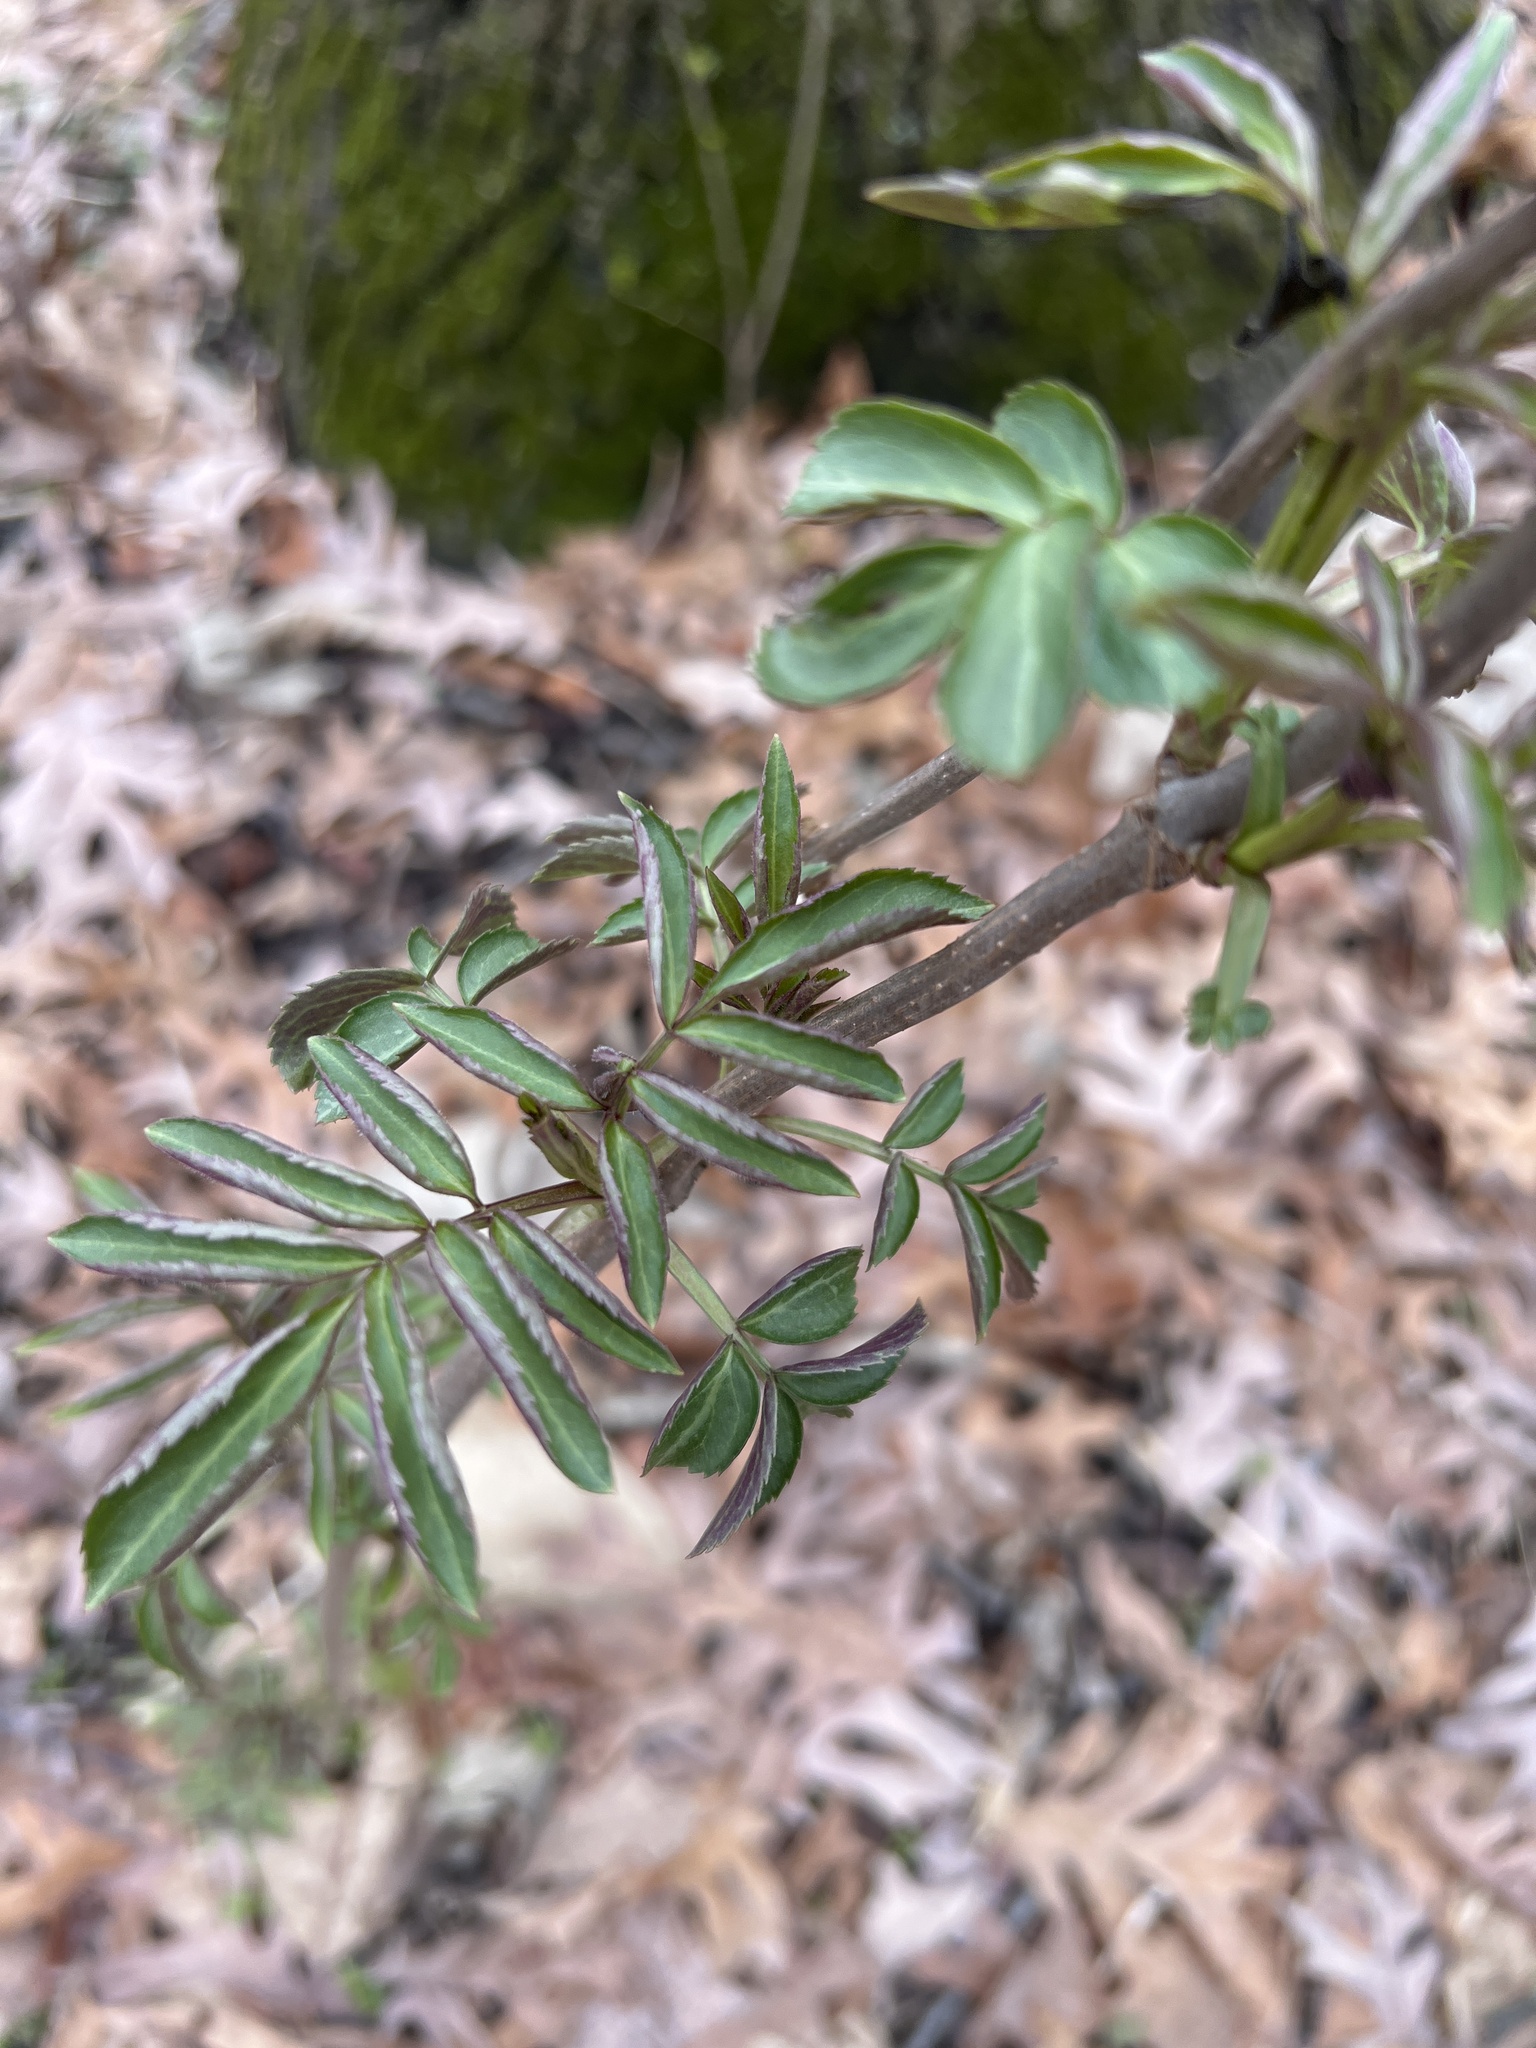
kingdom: Plantae
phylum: Tracheophyta
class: Magnoliopsida
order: Dipsacales
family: Viburnaceae
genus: Sambucus
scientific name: Sambucus canadensis
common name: American elder
